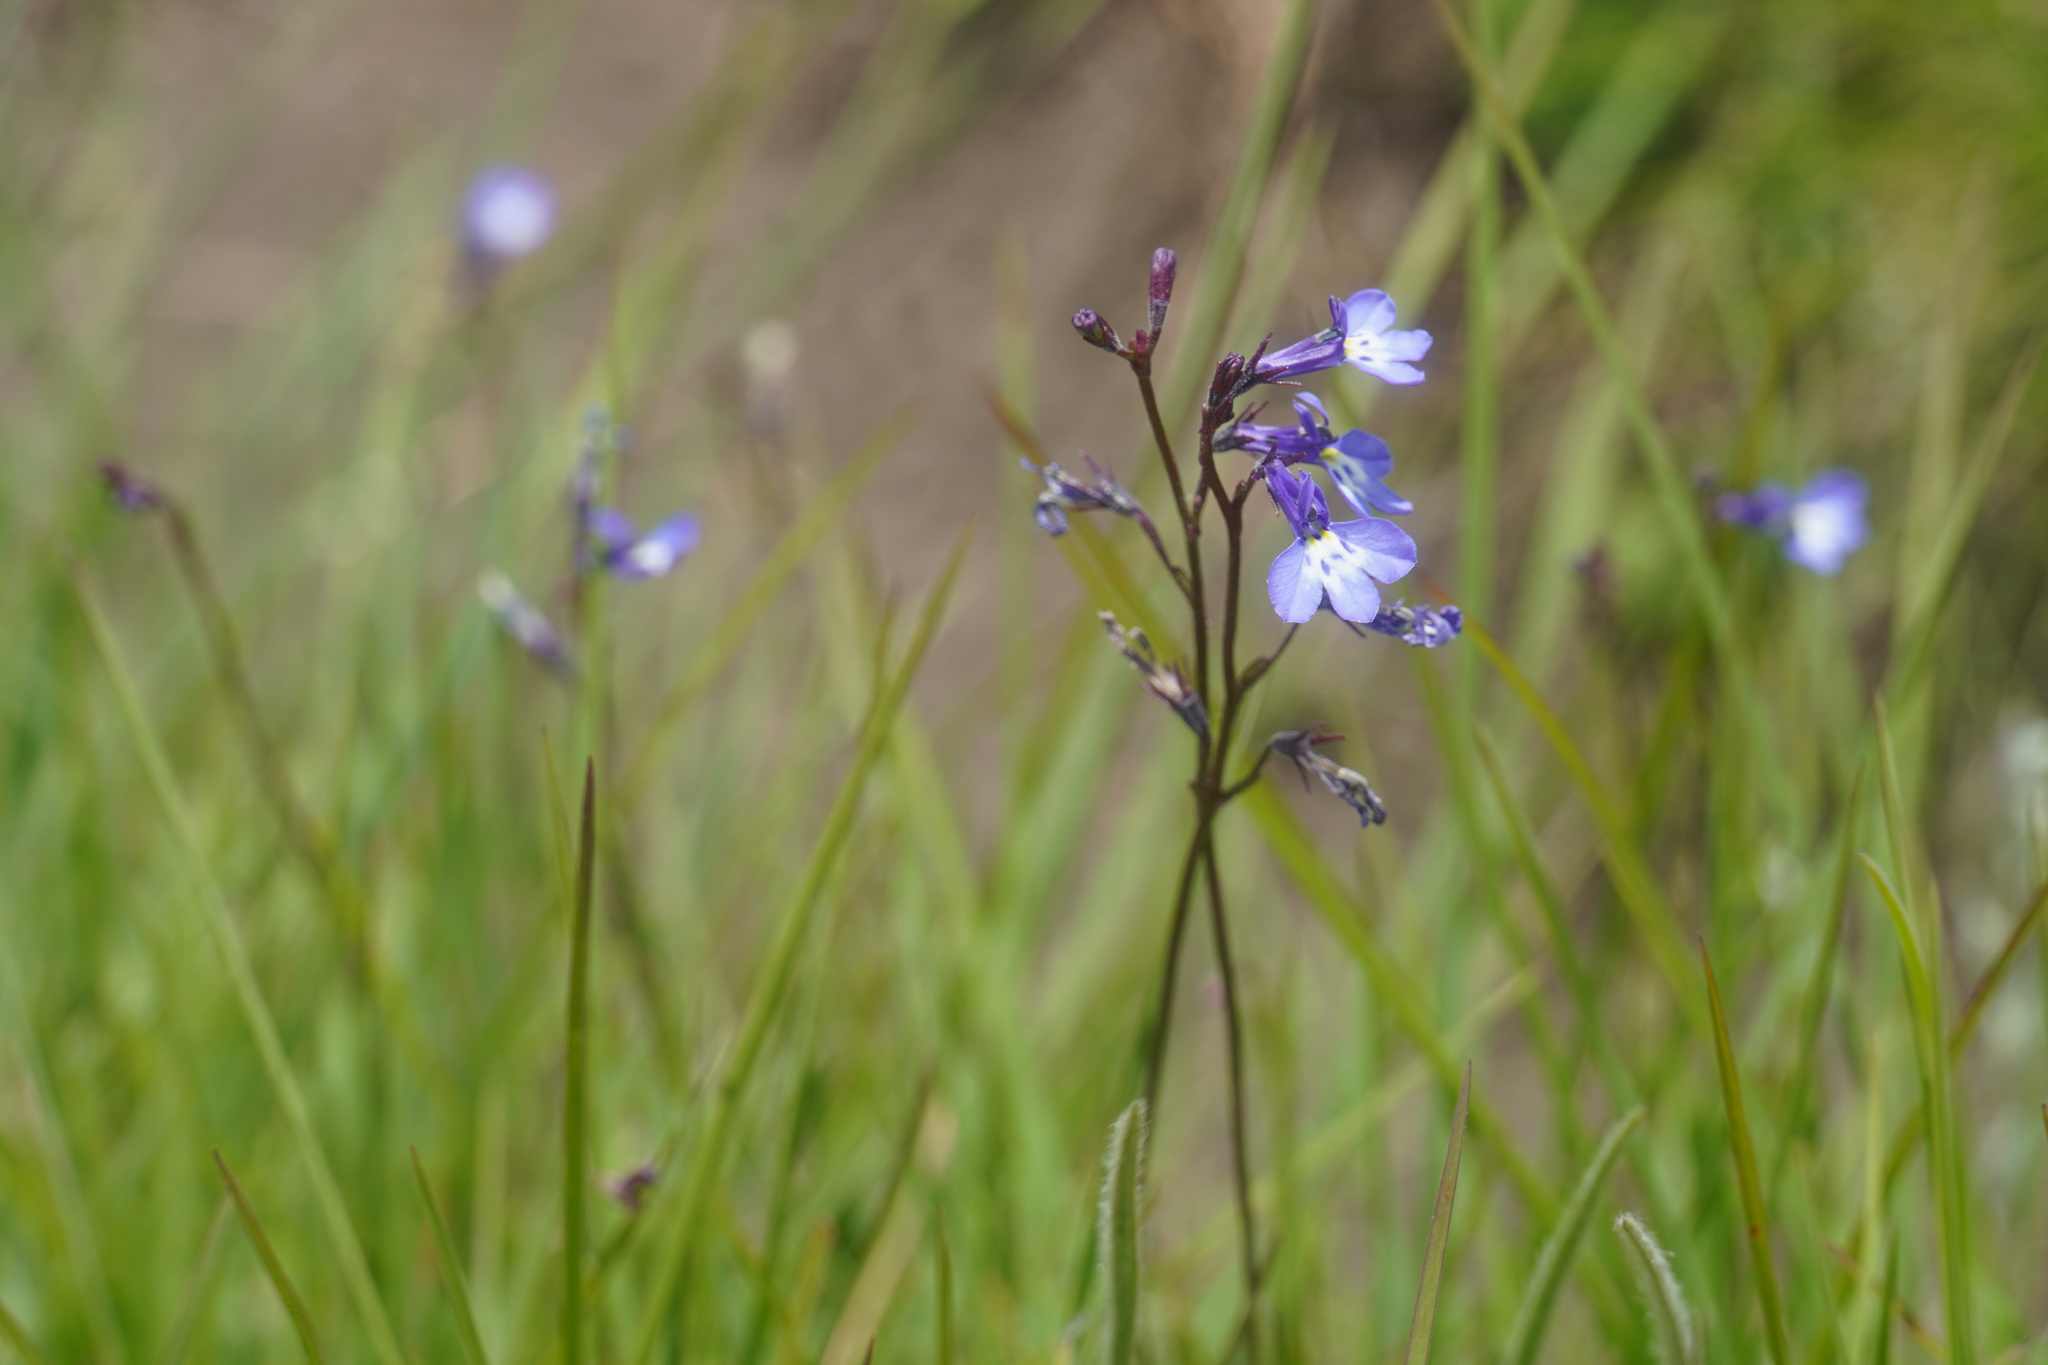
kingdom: Plantae
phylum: Tracheophyta
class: Magnoliopsida
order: Asterales
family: Campanulaceae
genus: Lobelia
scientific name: Lobelia flaccida
